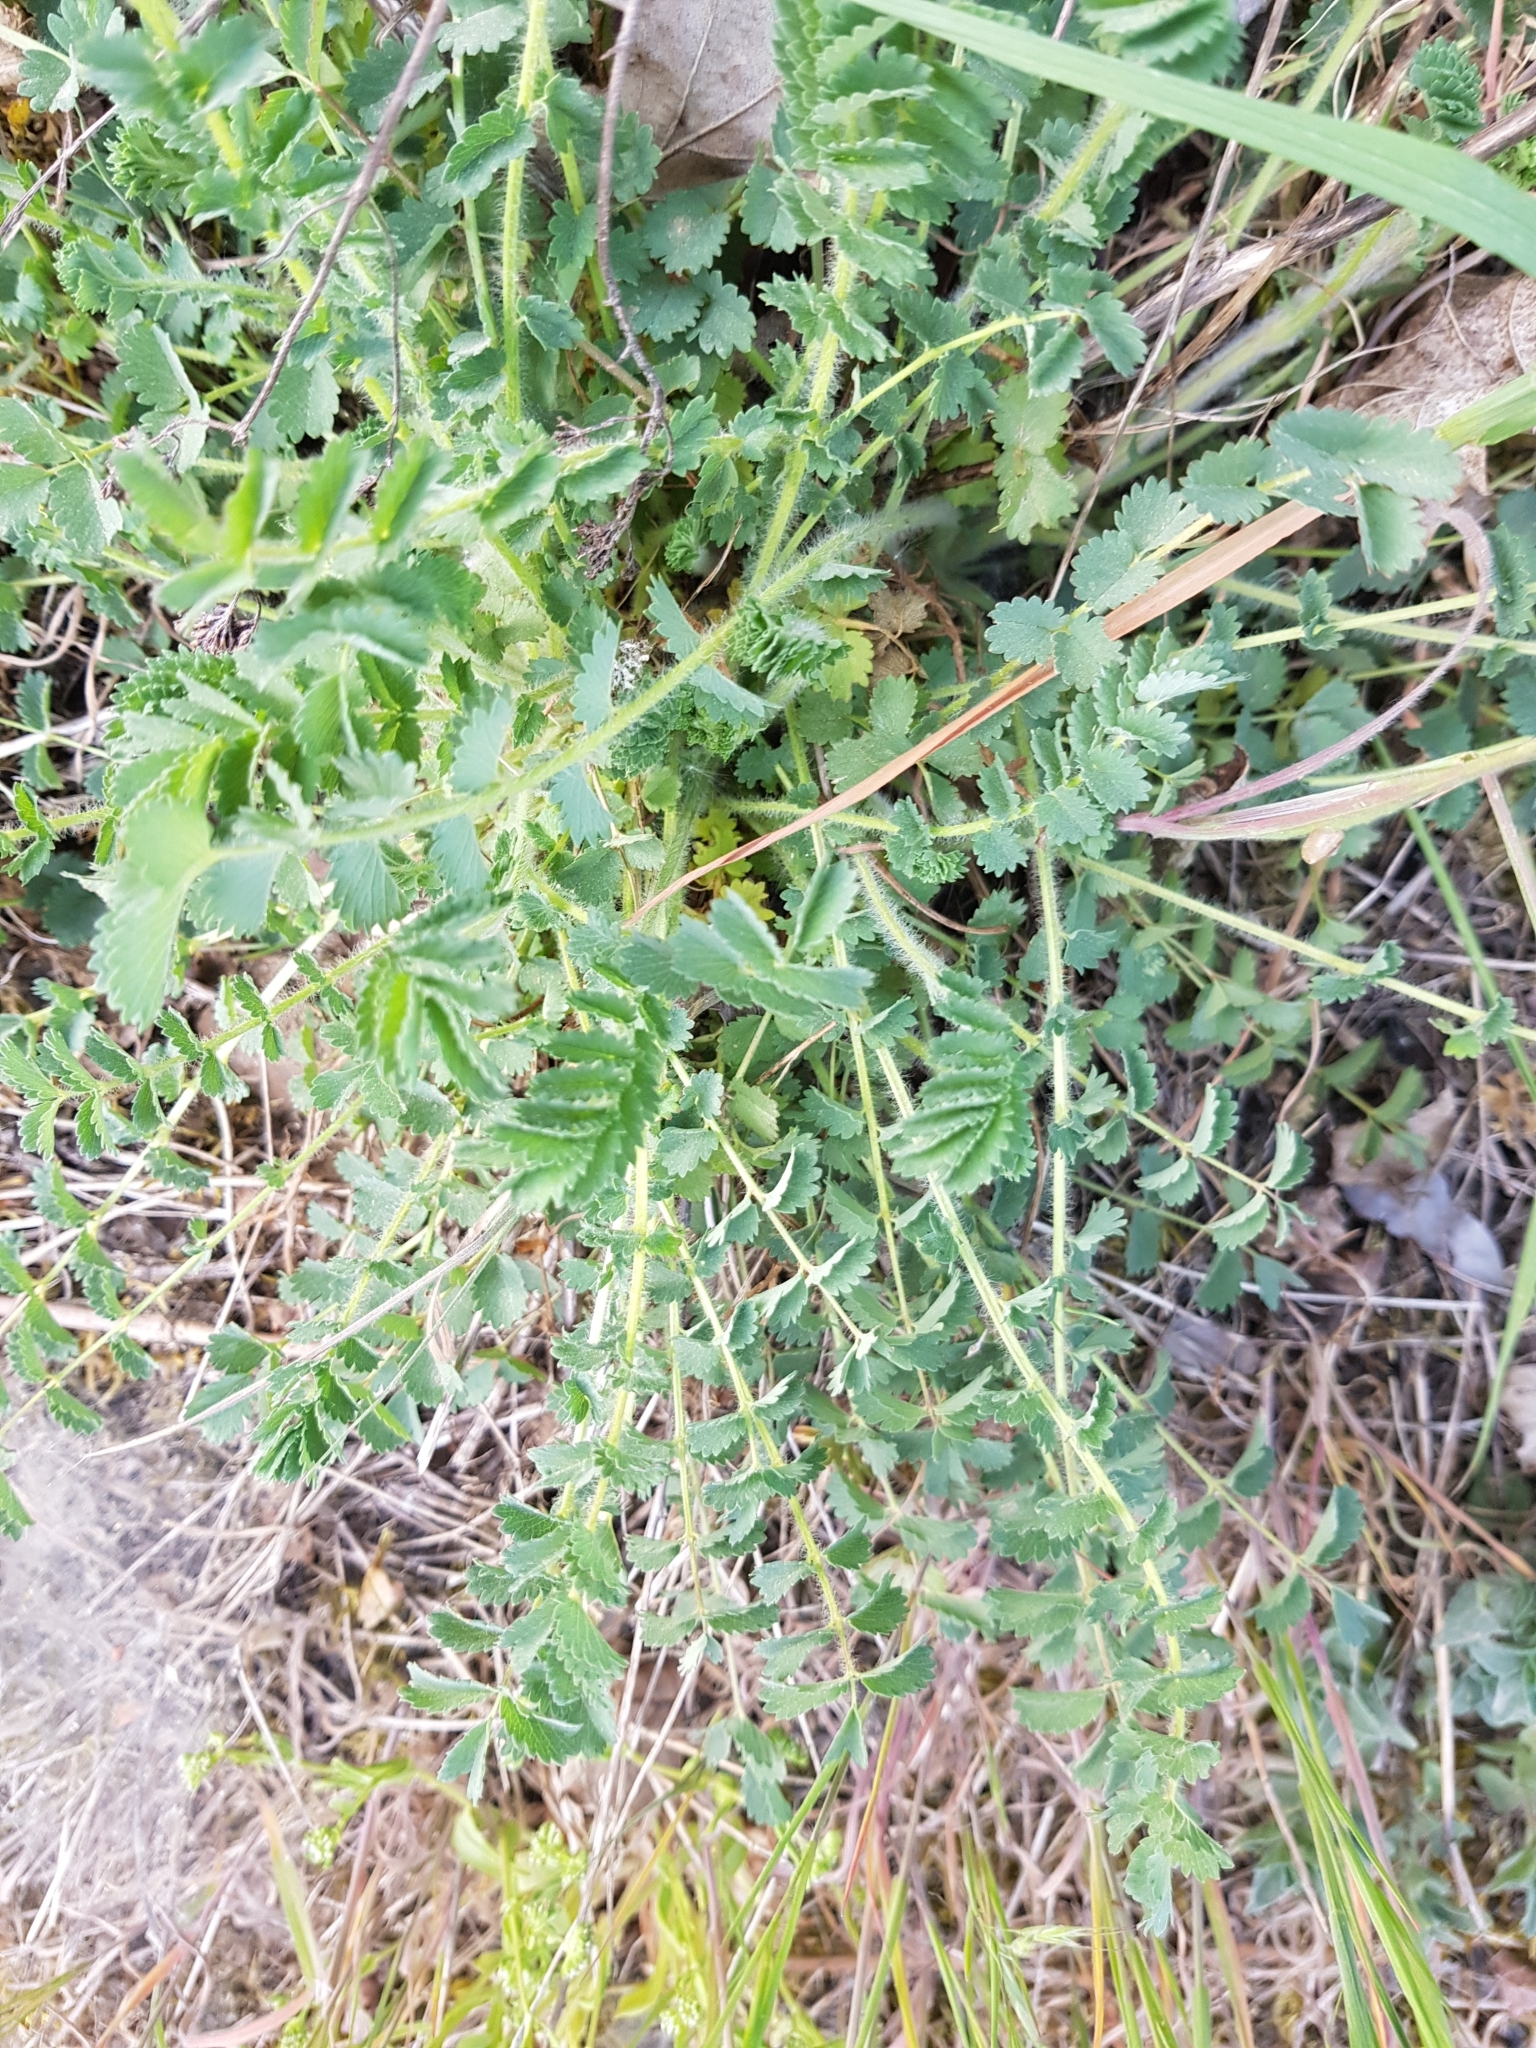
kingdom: Plantae
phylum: Tracheophyta
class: Magnoliopsida
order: Rosales
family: Rosaceae
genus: Poterium
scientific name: Poterium sanguisorba
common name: Salad burnet
